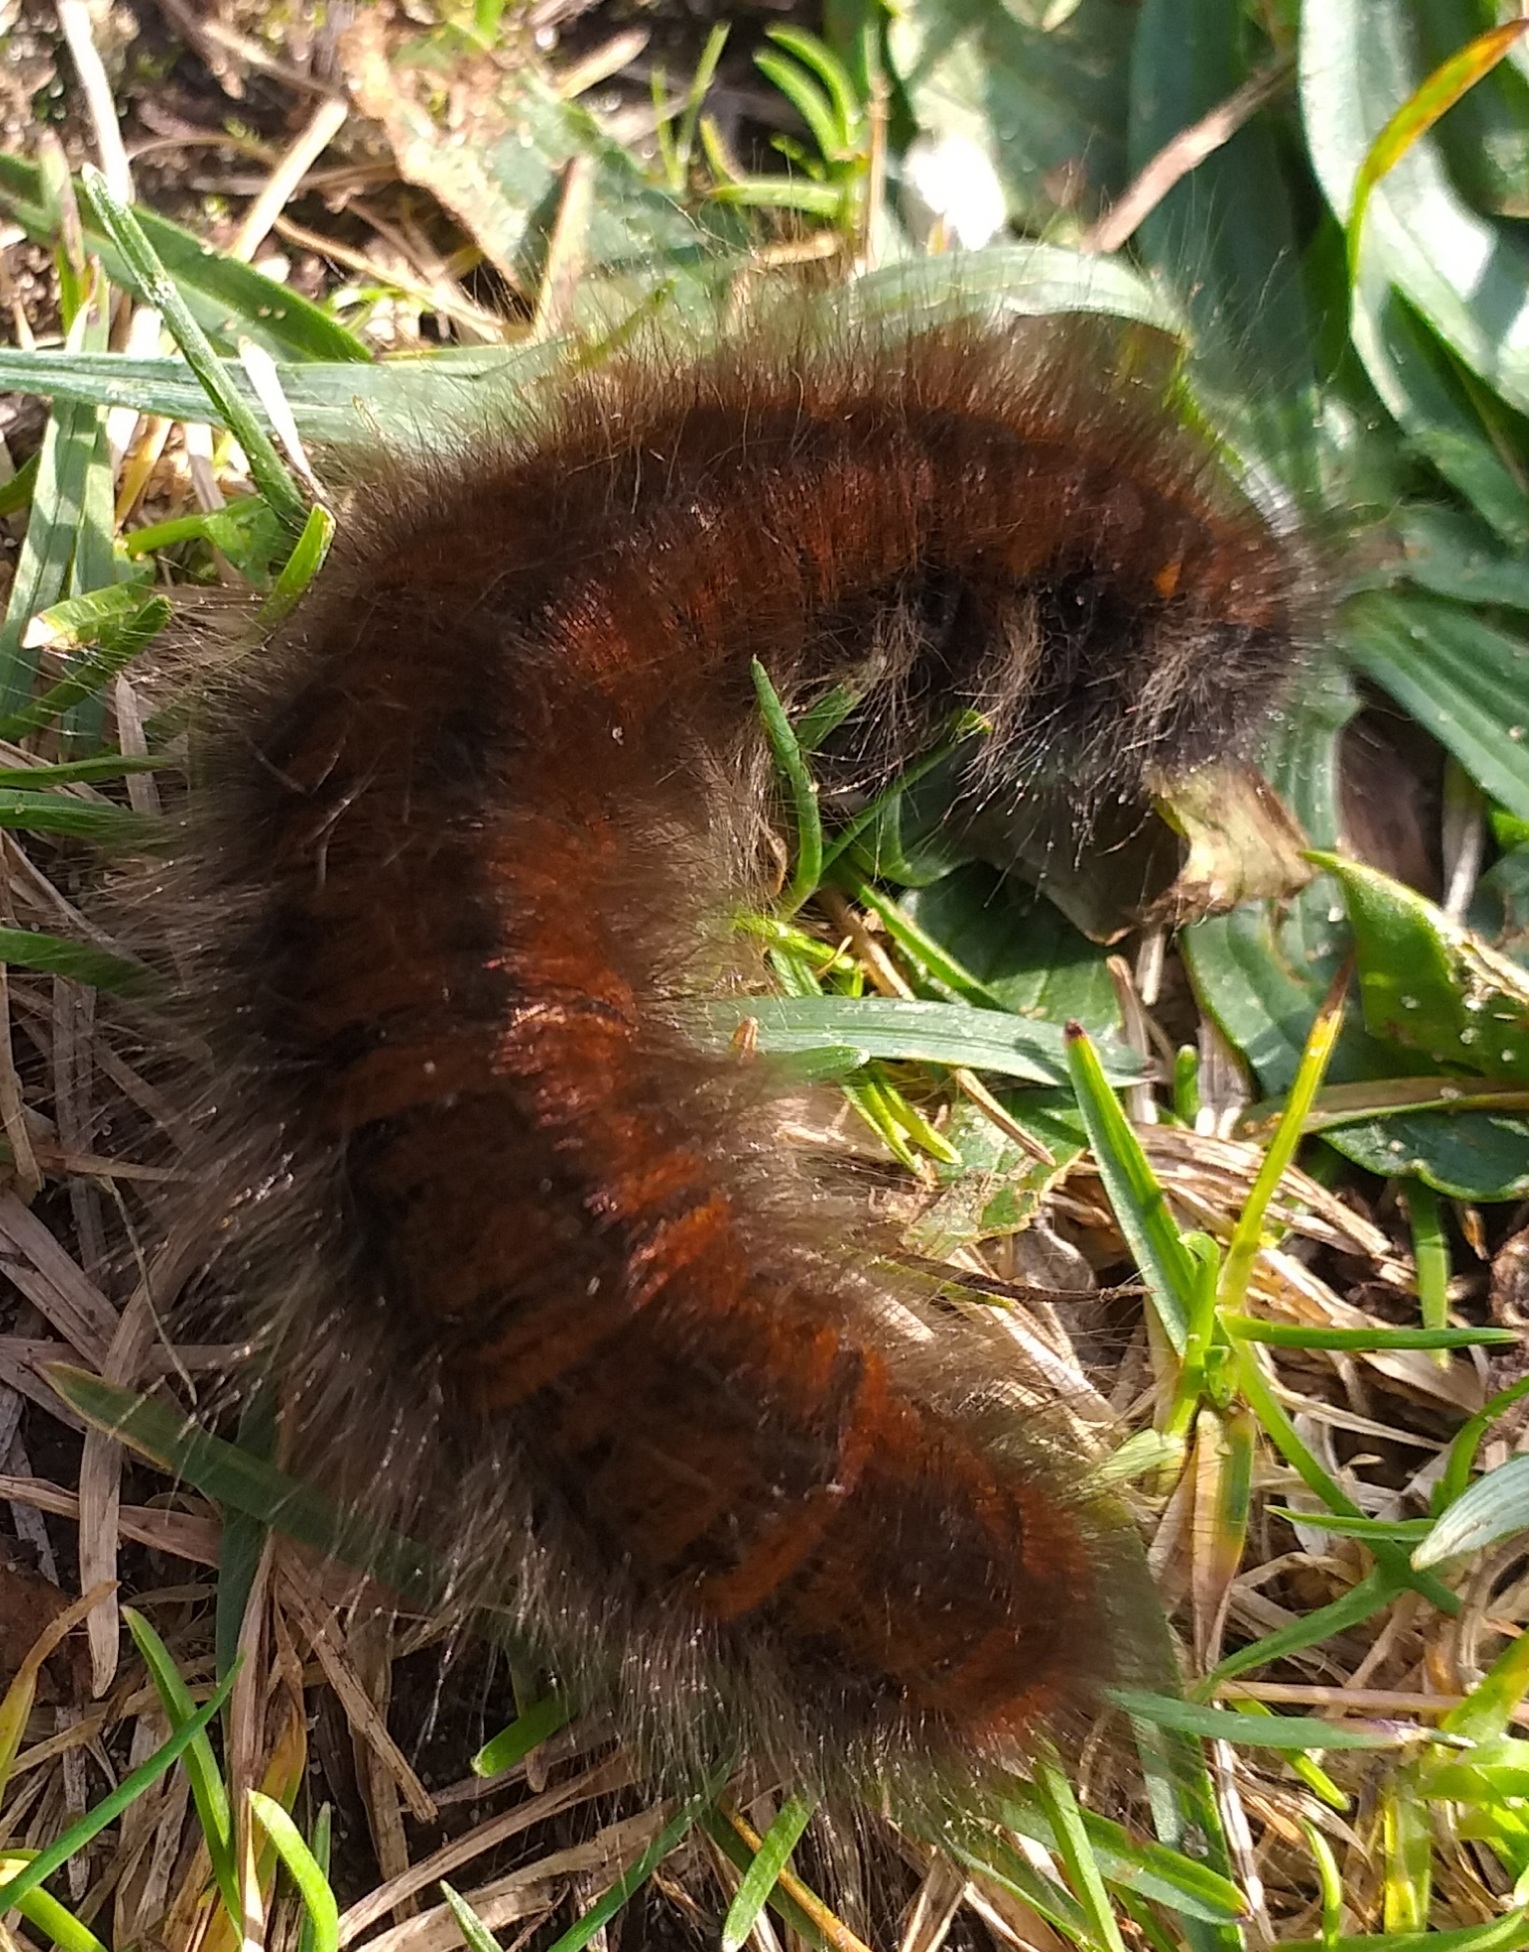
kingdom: Animalia
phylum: Arthropoda
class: Insecta
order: Lepidoptera
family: Lasiocampidae
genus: Macrothylacia
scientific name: Macrothylacia rubi
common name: Fox moth
